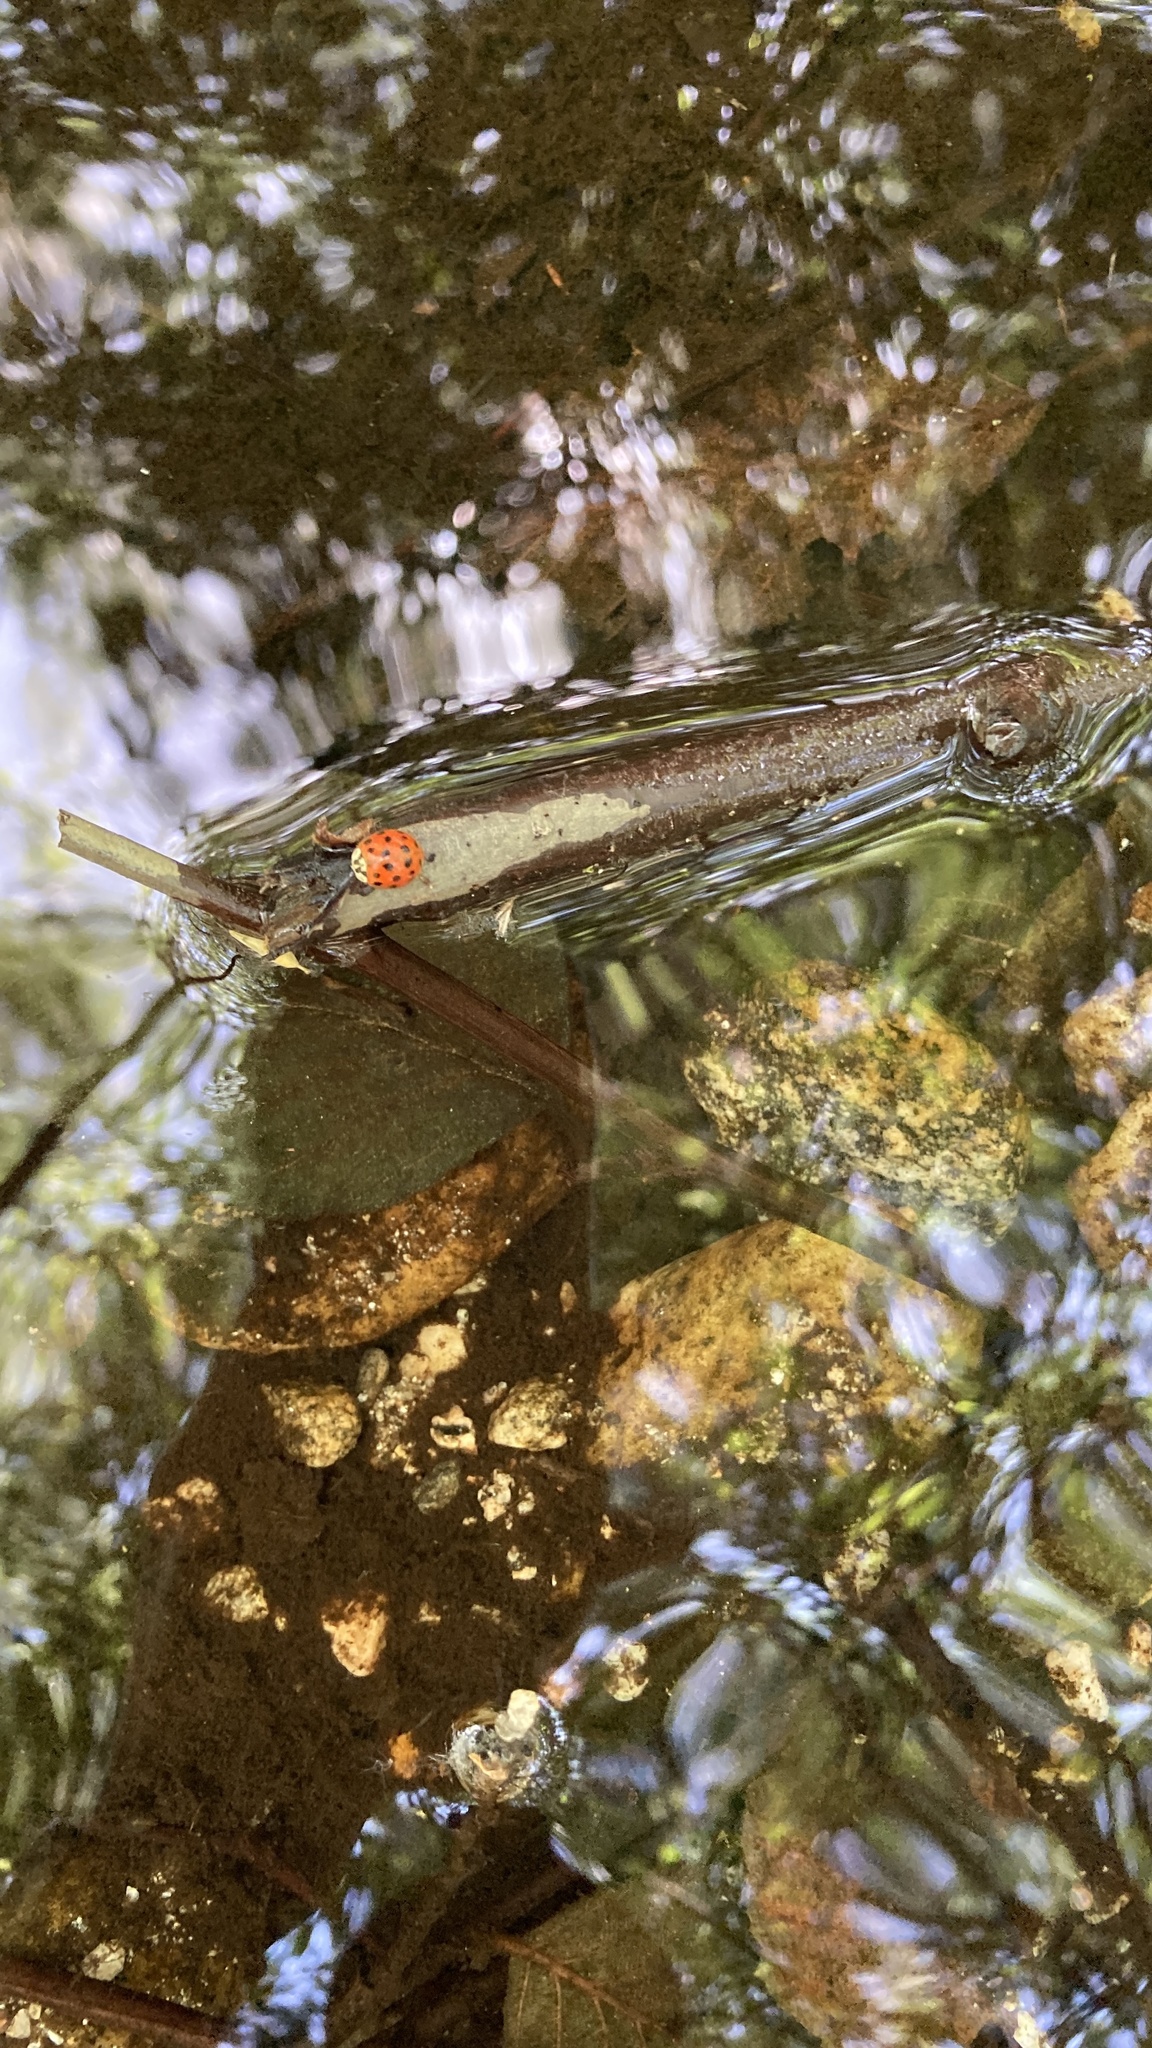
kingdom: Animalia
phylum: Arthropoda
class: Insecta
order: Coleoptera
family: Coccinellidae
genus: Harmonia
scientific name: Harmonia axyridis
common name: Harlequin ladybird
